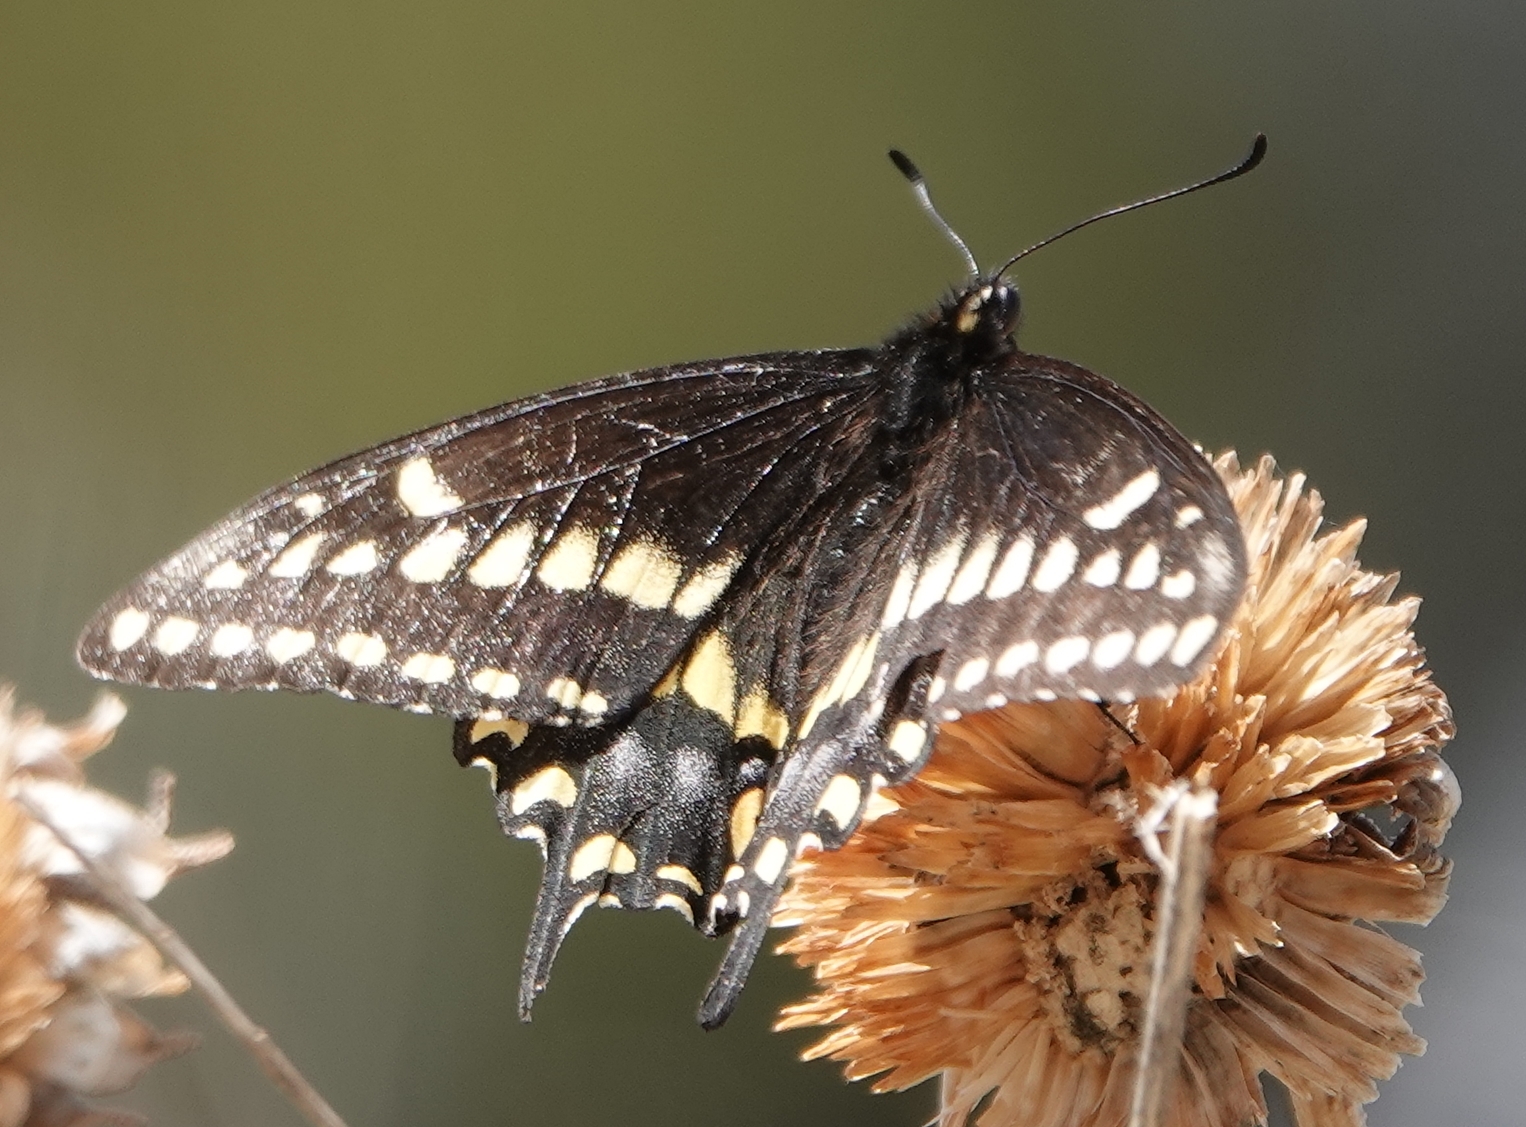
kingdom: Animalia
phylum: Arthropoda
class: Insecta
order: Lepidoptera
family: Papilionidae
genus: Papilio
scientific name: Papilio
